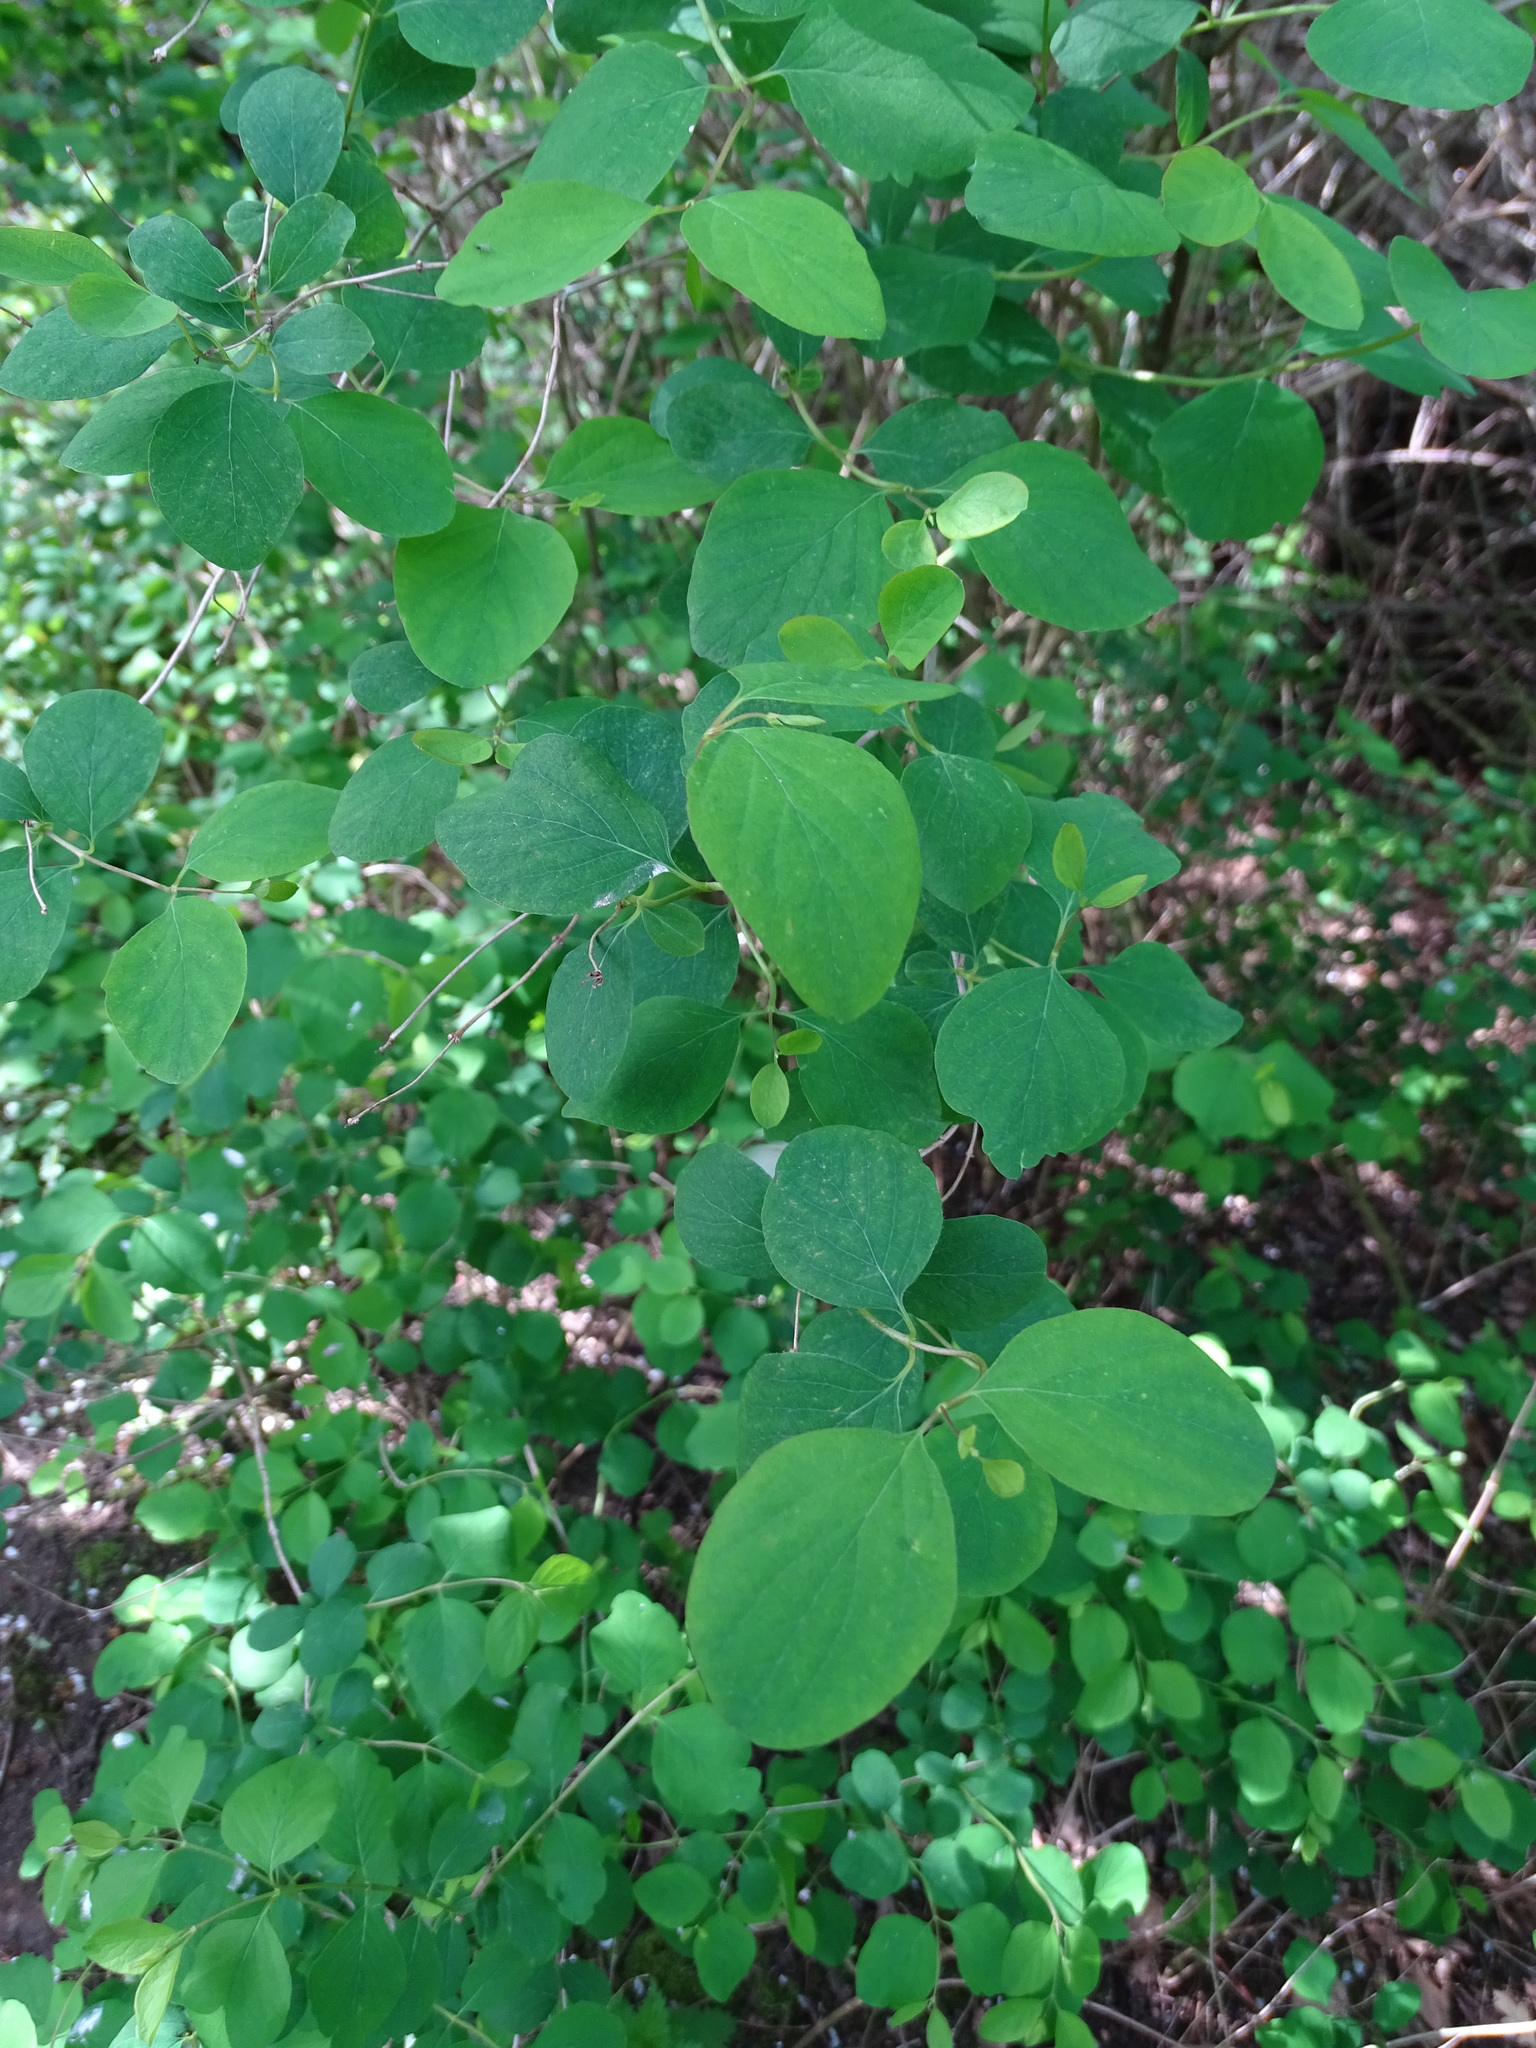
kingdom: Plantae
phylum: Tracheophyta
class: Magnoliopsida
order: Dipsacales
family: Caprifoliaceae
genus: Symphoricarpos
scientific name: Symphoricarpos albus
